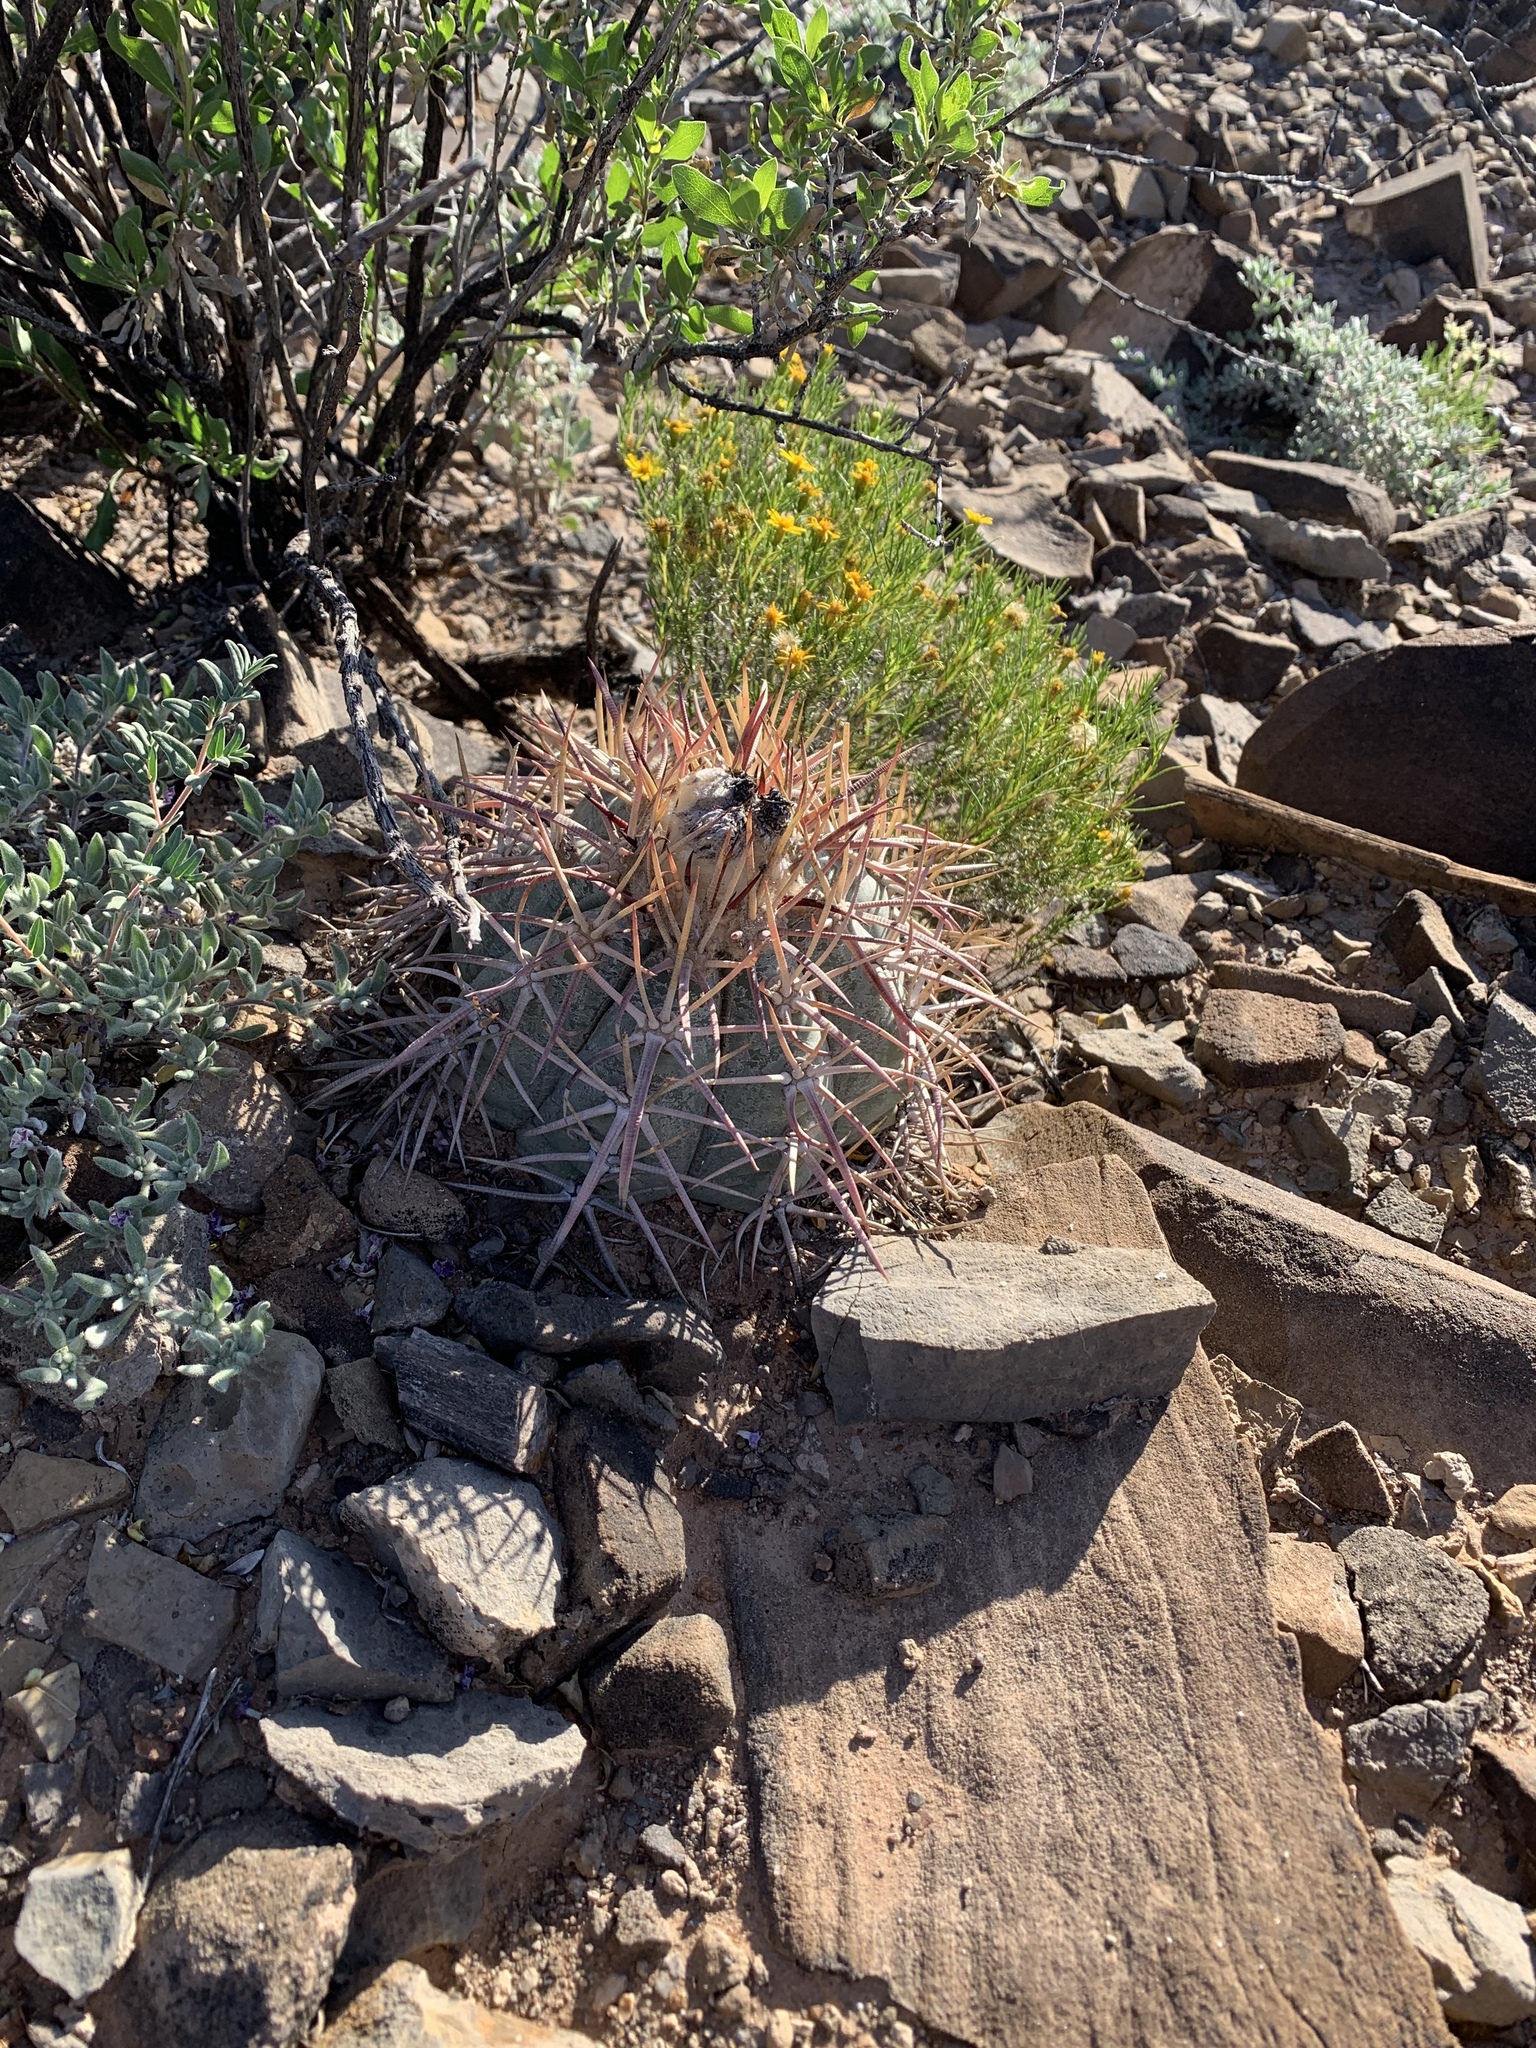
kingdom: Plantae
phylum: Tracheophyta
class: Magnoliopsida
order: Caryophyllales
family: Cactaceae
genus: Echinocactus
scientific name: Echinocactus horizonthalonius
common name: Devilshead
